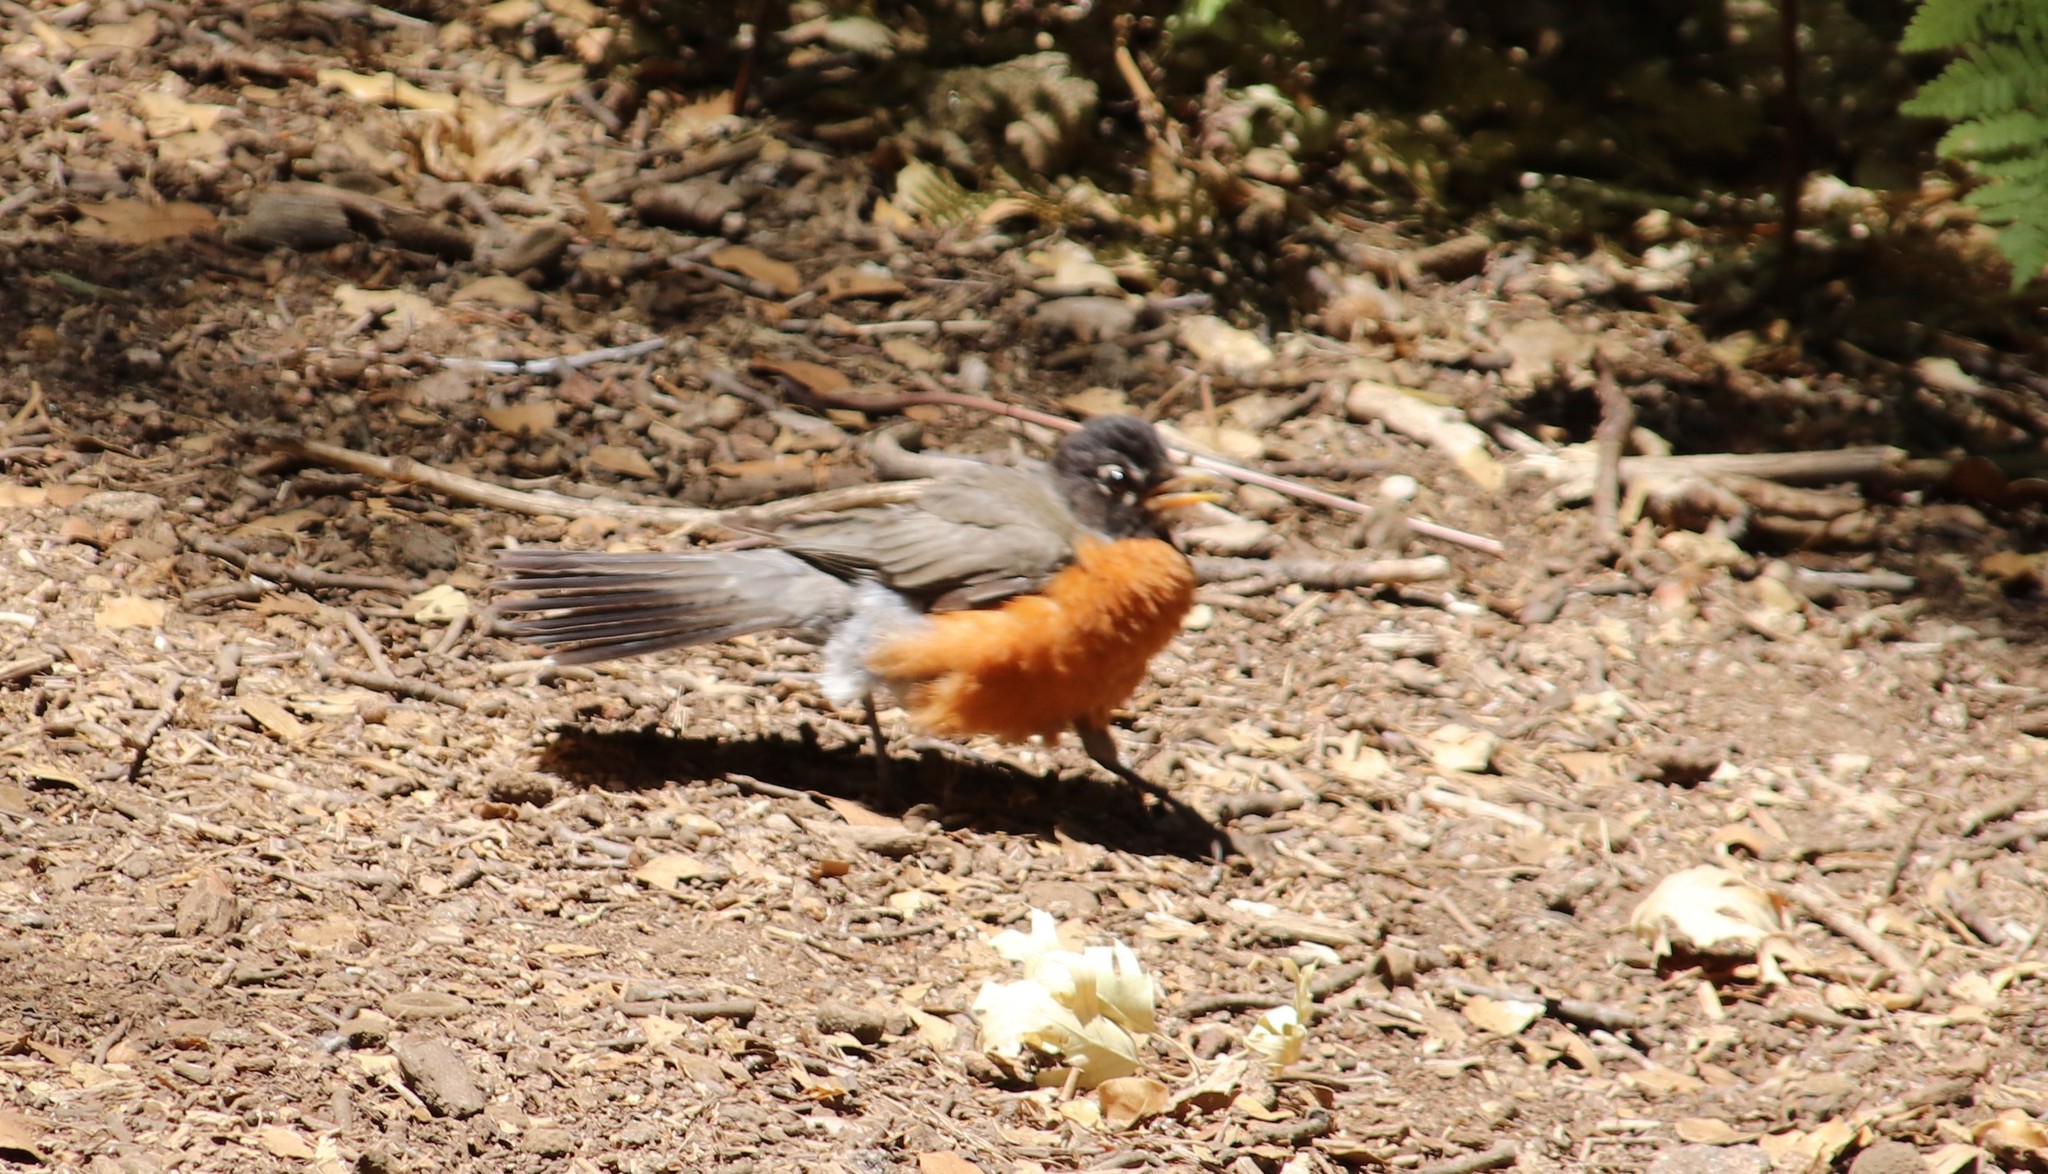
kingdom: Animalia
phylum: Chordata
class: Aves
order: Passeriformes
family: Turdidae
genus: Turdus
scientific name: Turdus migratorius
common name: American robin
